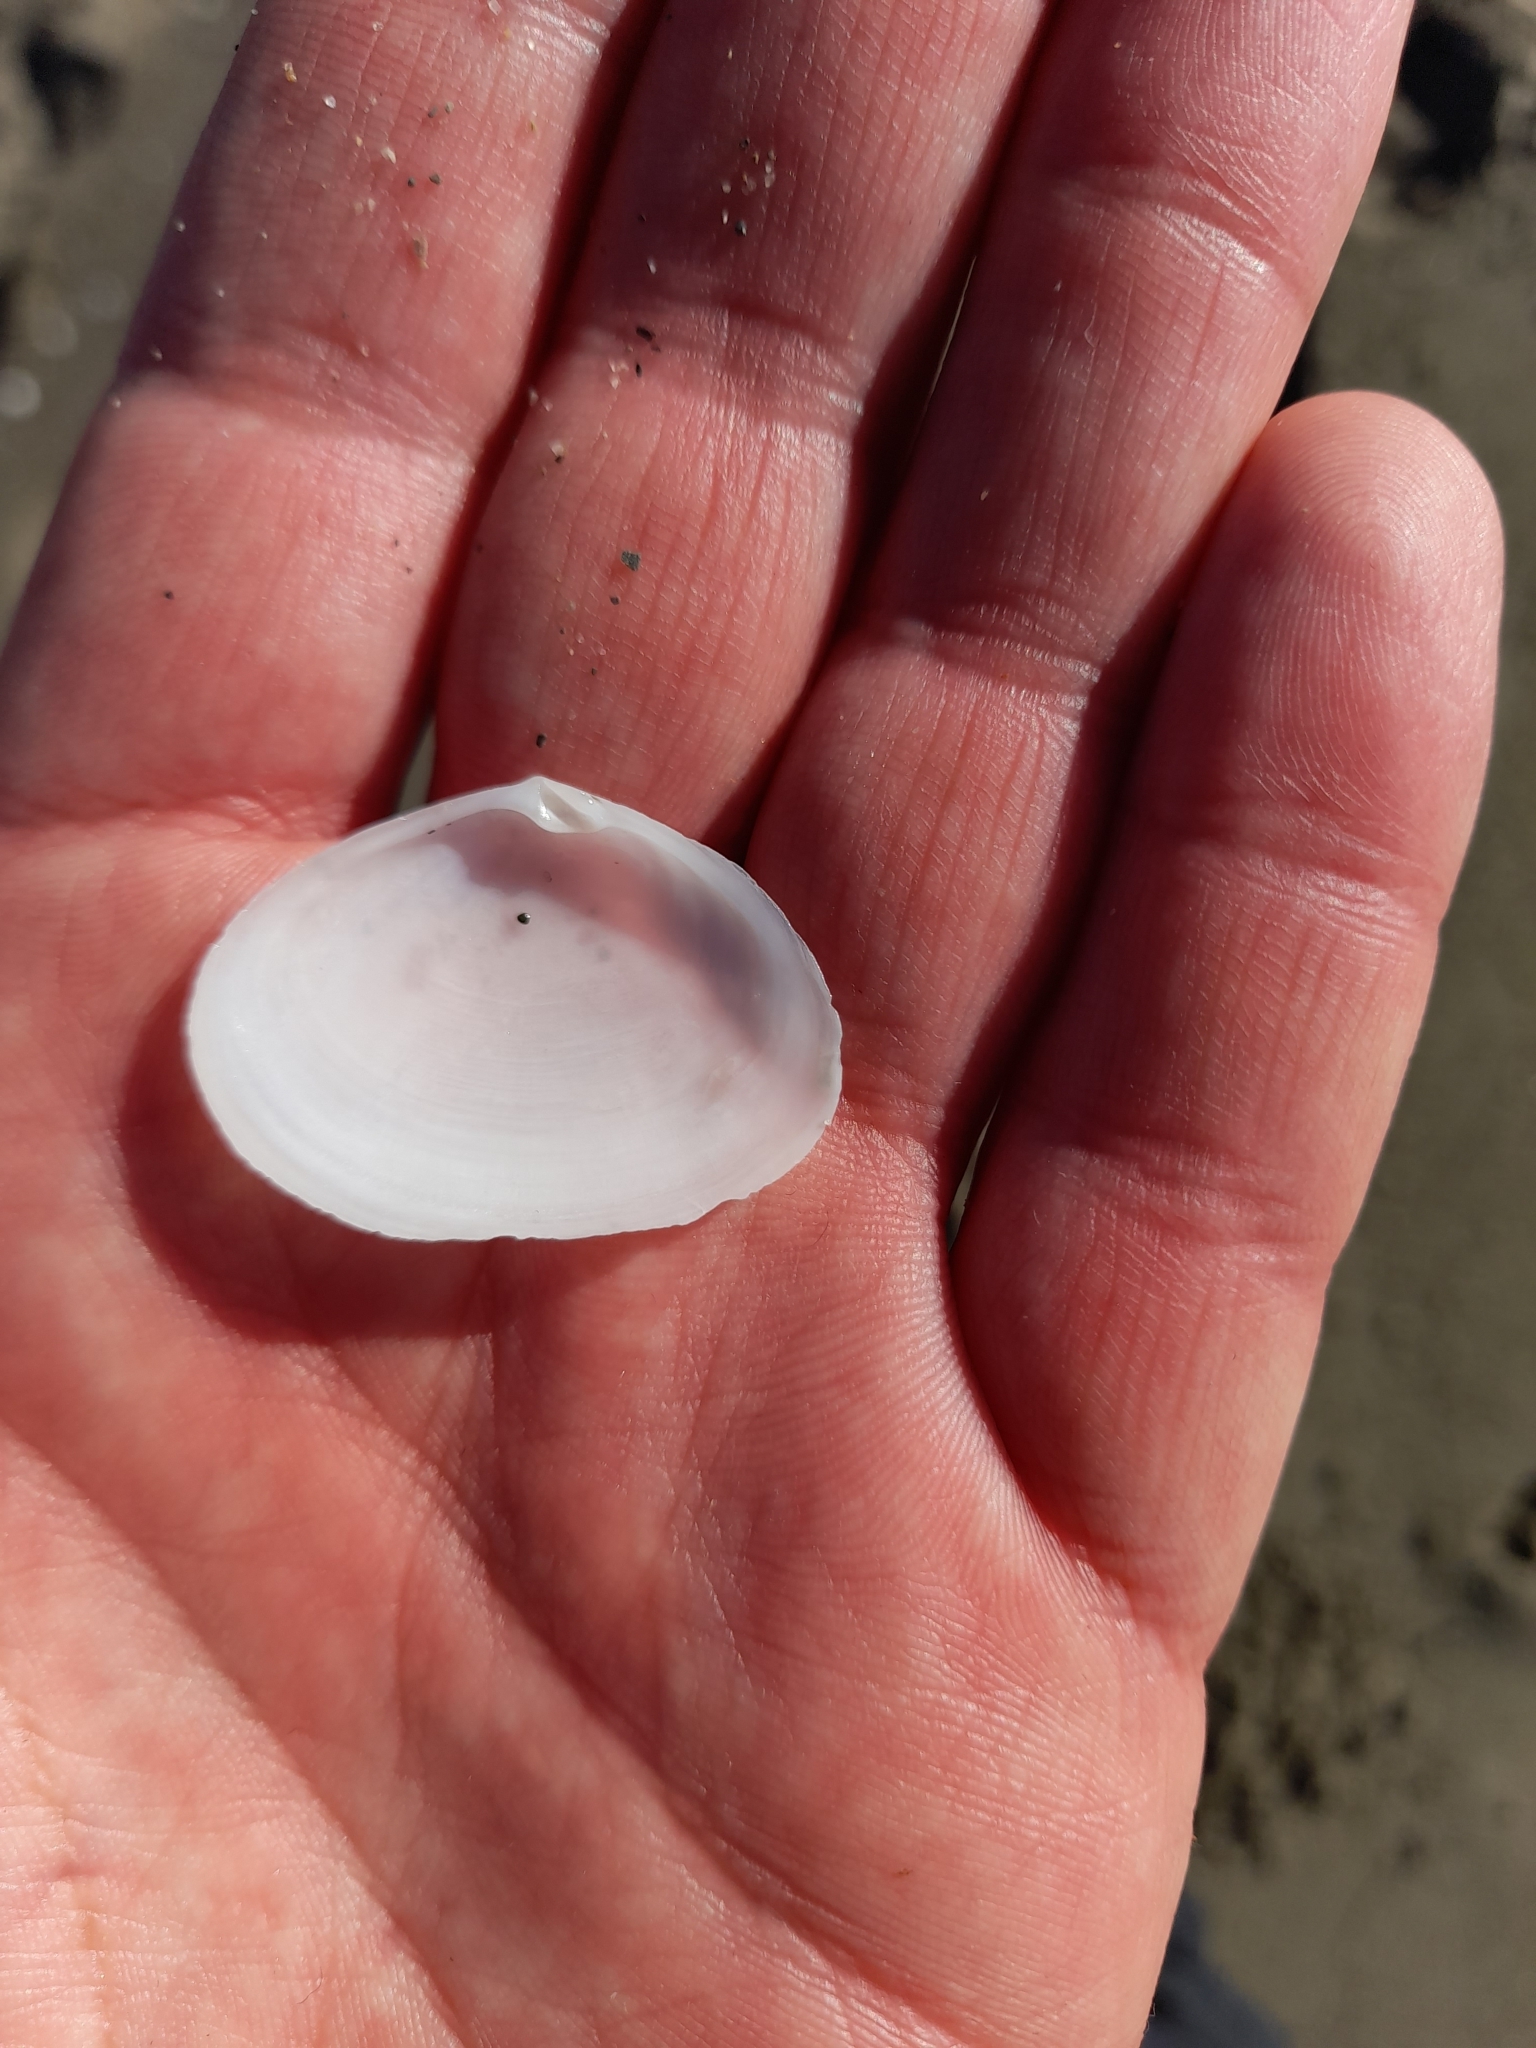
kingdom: Animalia
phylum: Mollusca
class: Bivalvia
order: Cardiida
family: Semelidae
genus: Scrobicularia
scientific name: Scrobicularia plana
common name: Peppery furrow shell
